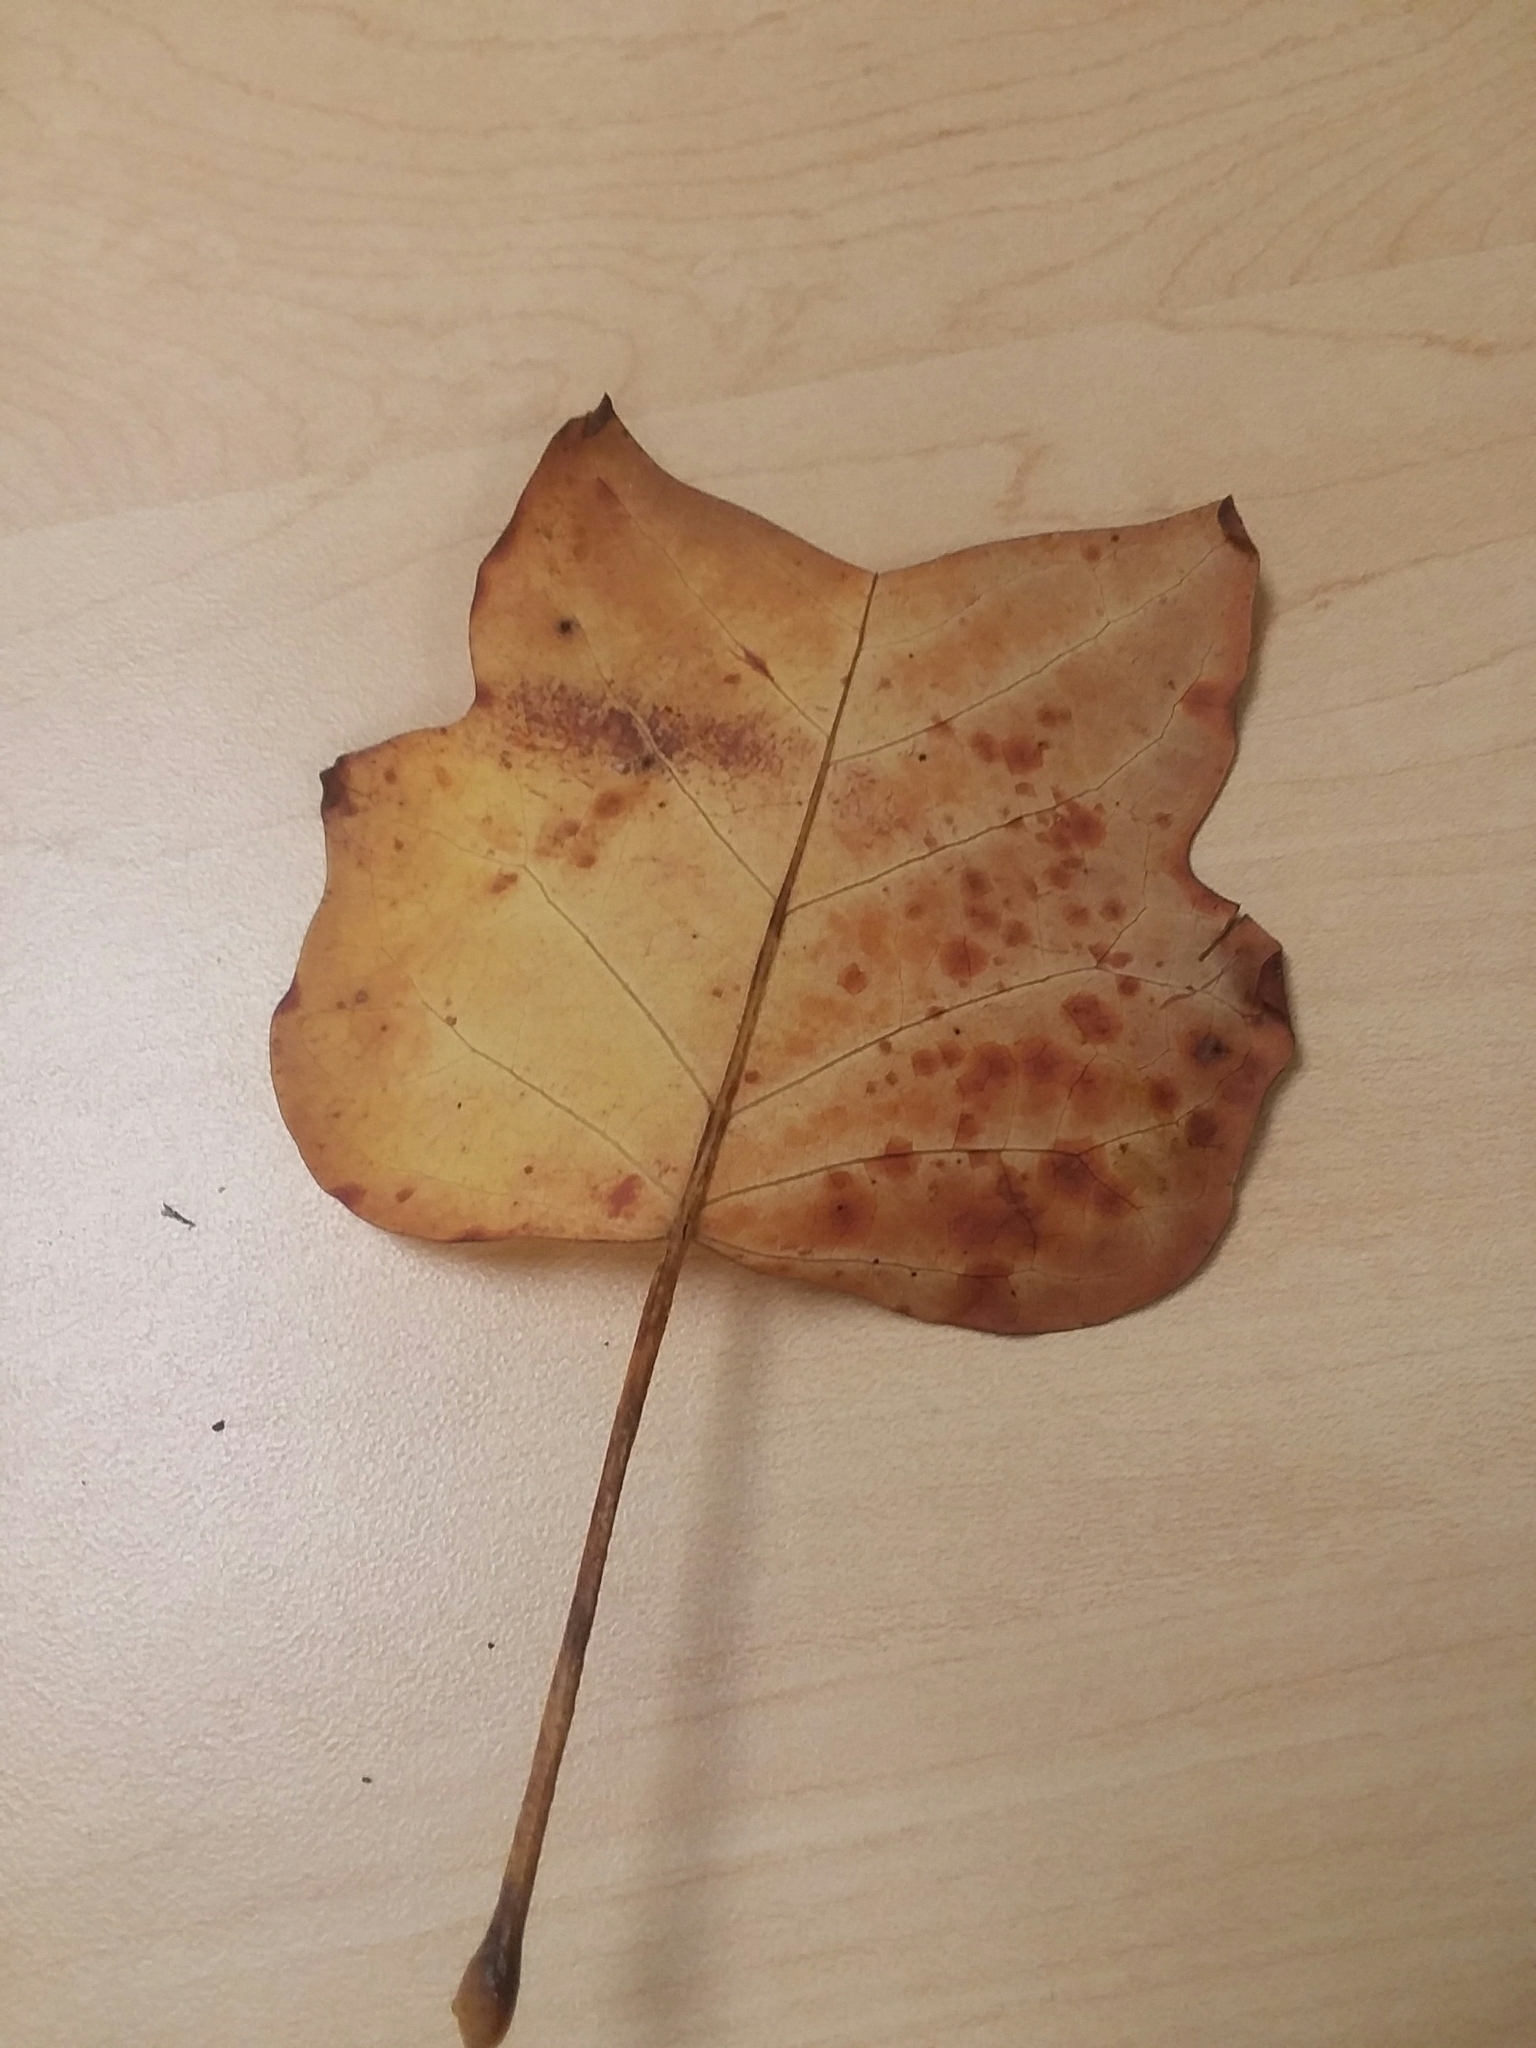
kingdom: Plantae
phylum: Tracheophyta
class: Magnoliopsida
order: Magnoliales
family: Magnoliaceae
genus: Liriodendron
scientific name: Liriodendron tulipifera
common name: Tulip tree
